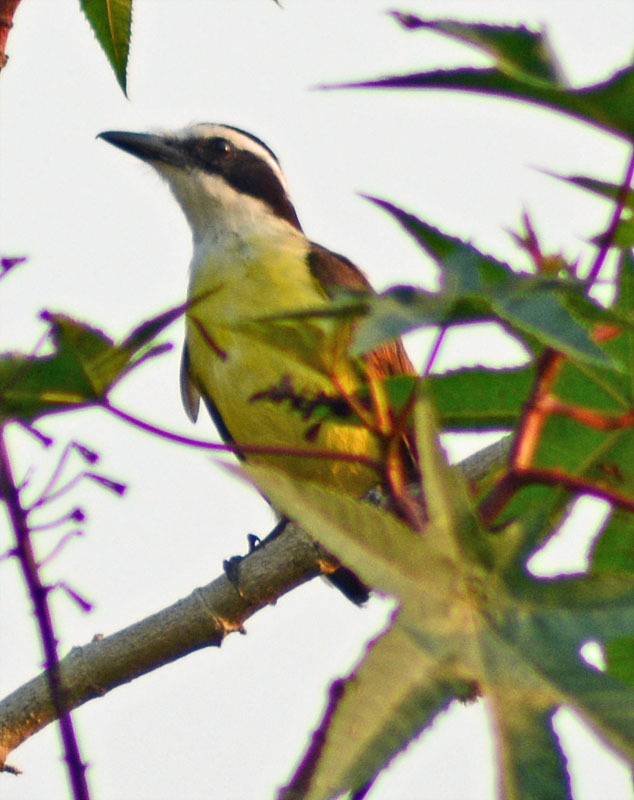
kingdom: Animalia
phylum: Chordata
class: Aves
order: Passeriformes
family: Tyrannidae
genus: Pitangus
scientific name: Pitangus sulphuratus
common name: Great kiskadee
